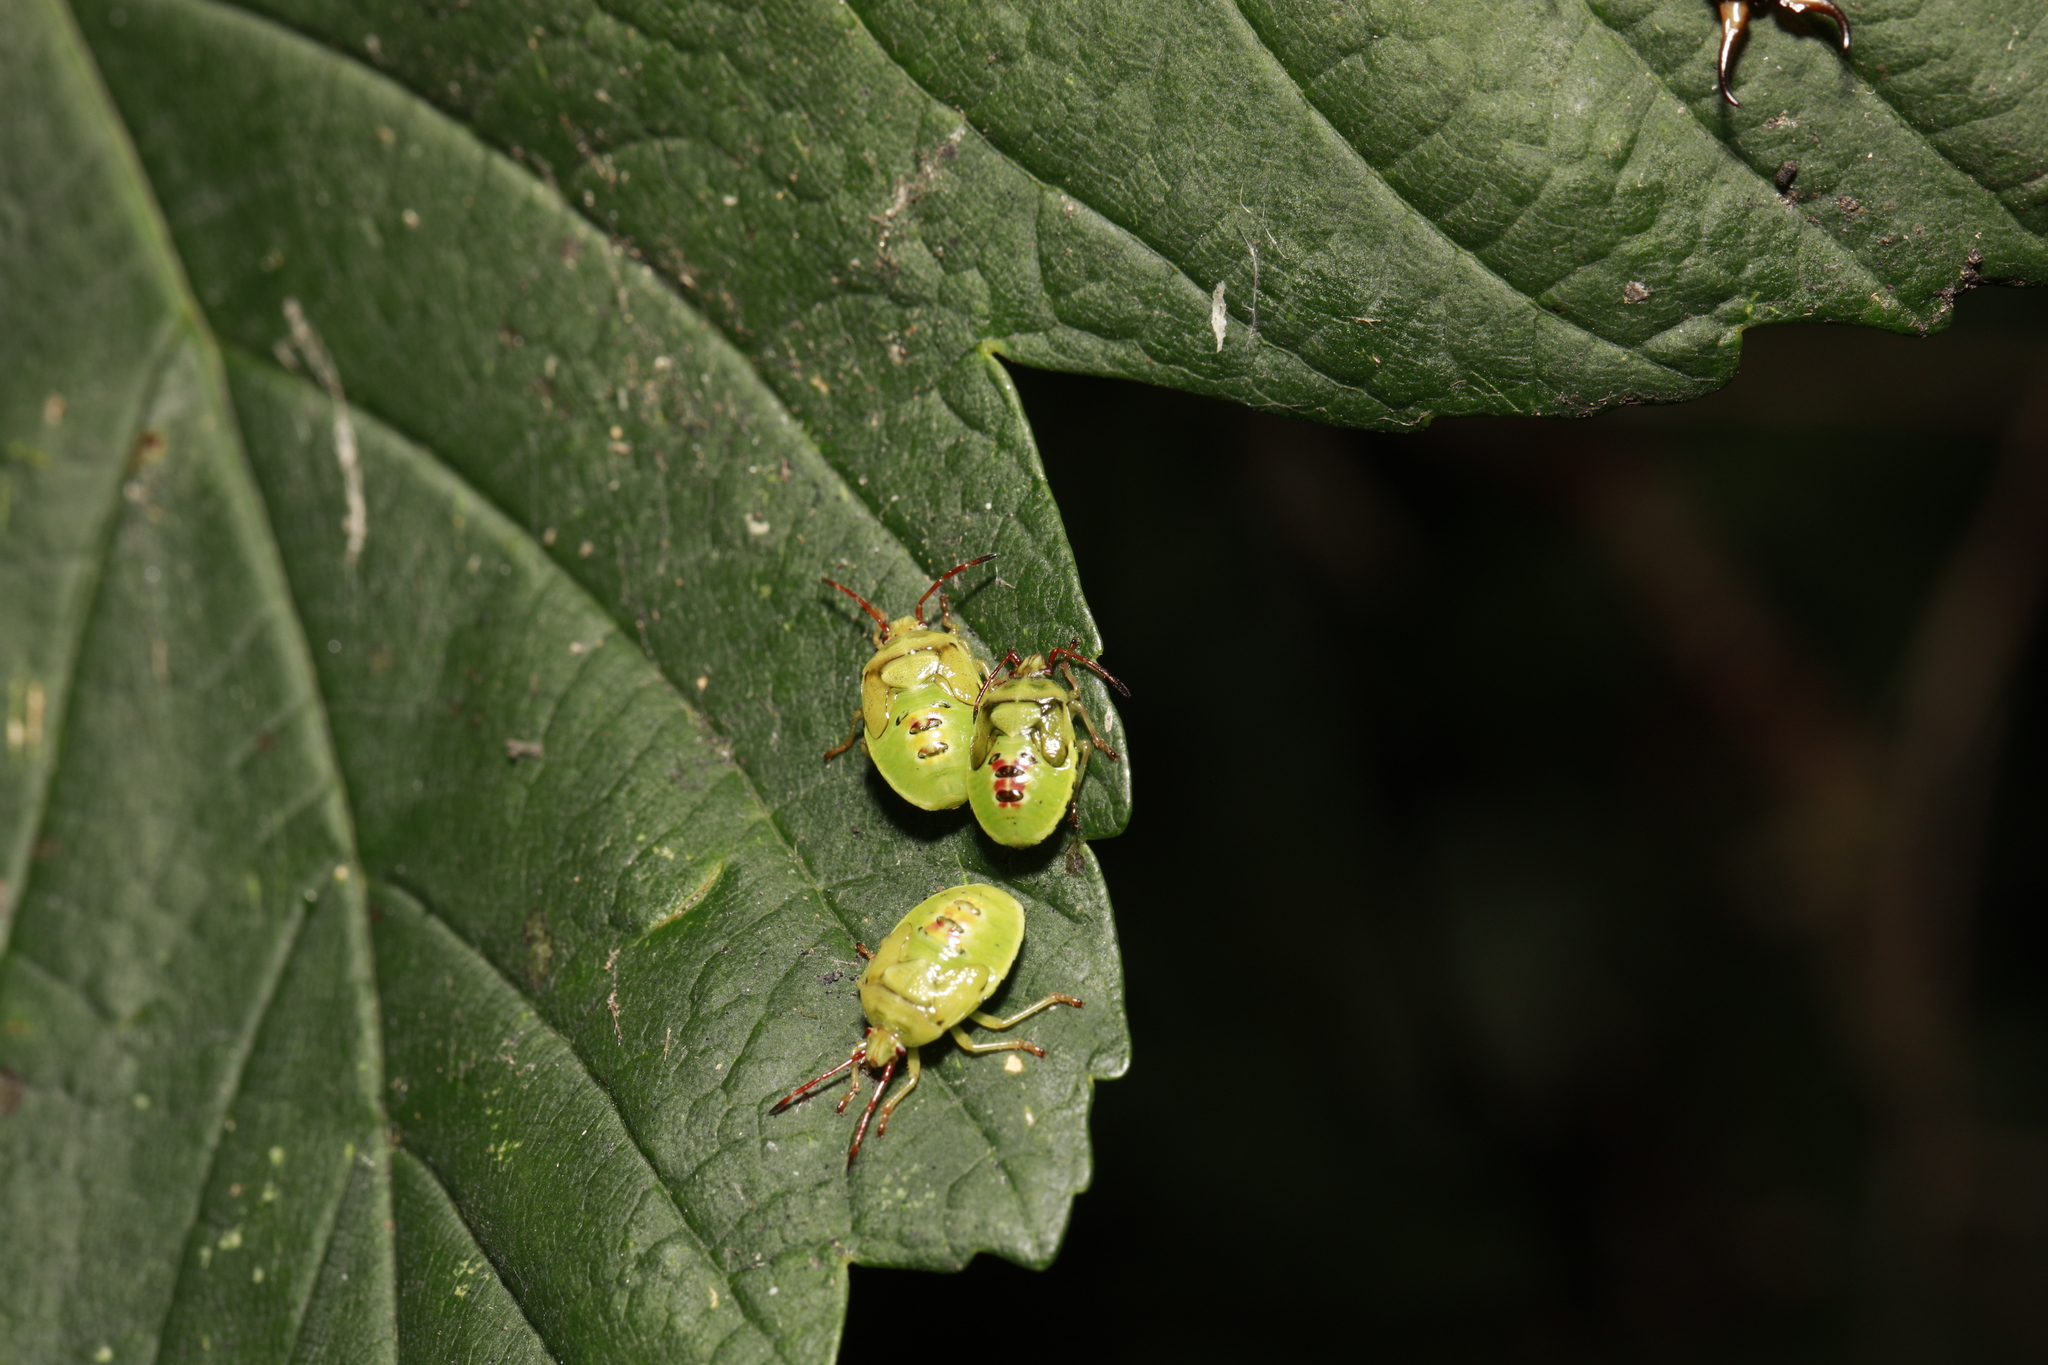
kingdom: Animalia
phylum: Arthropoda
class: Insecta
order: Hemiptera
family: Acanthosomatidae
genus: Elasmostethus
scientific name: Elasmostethus interstinctus
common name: Birch shieldbug
